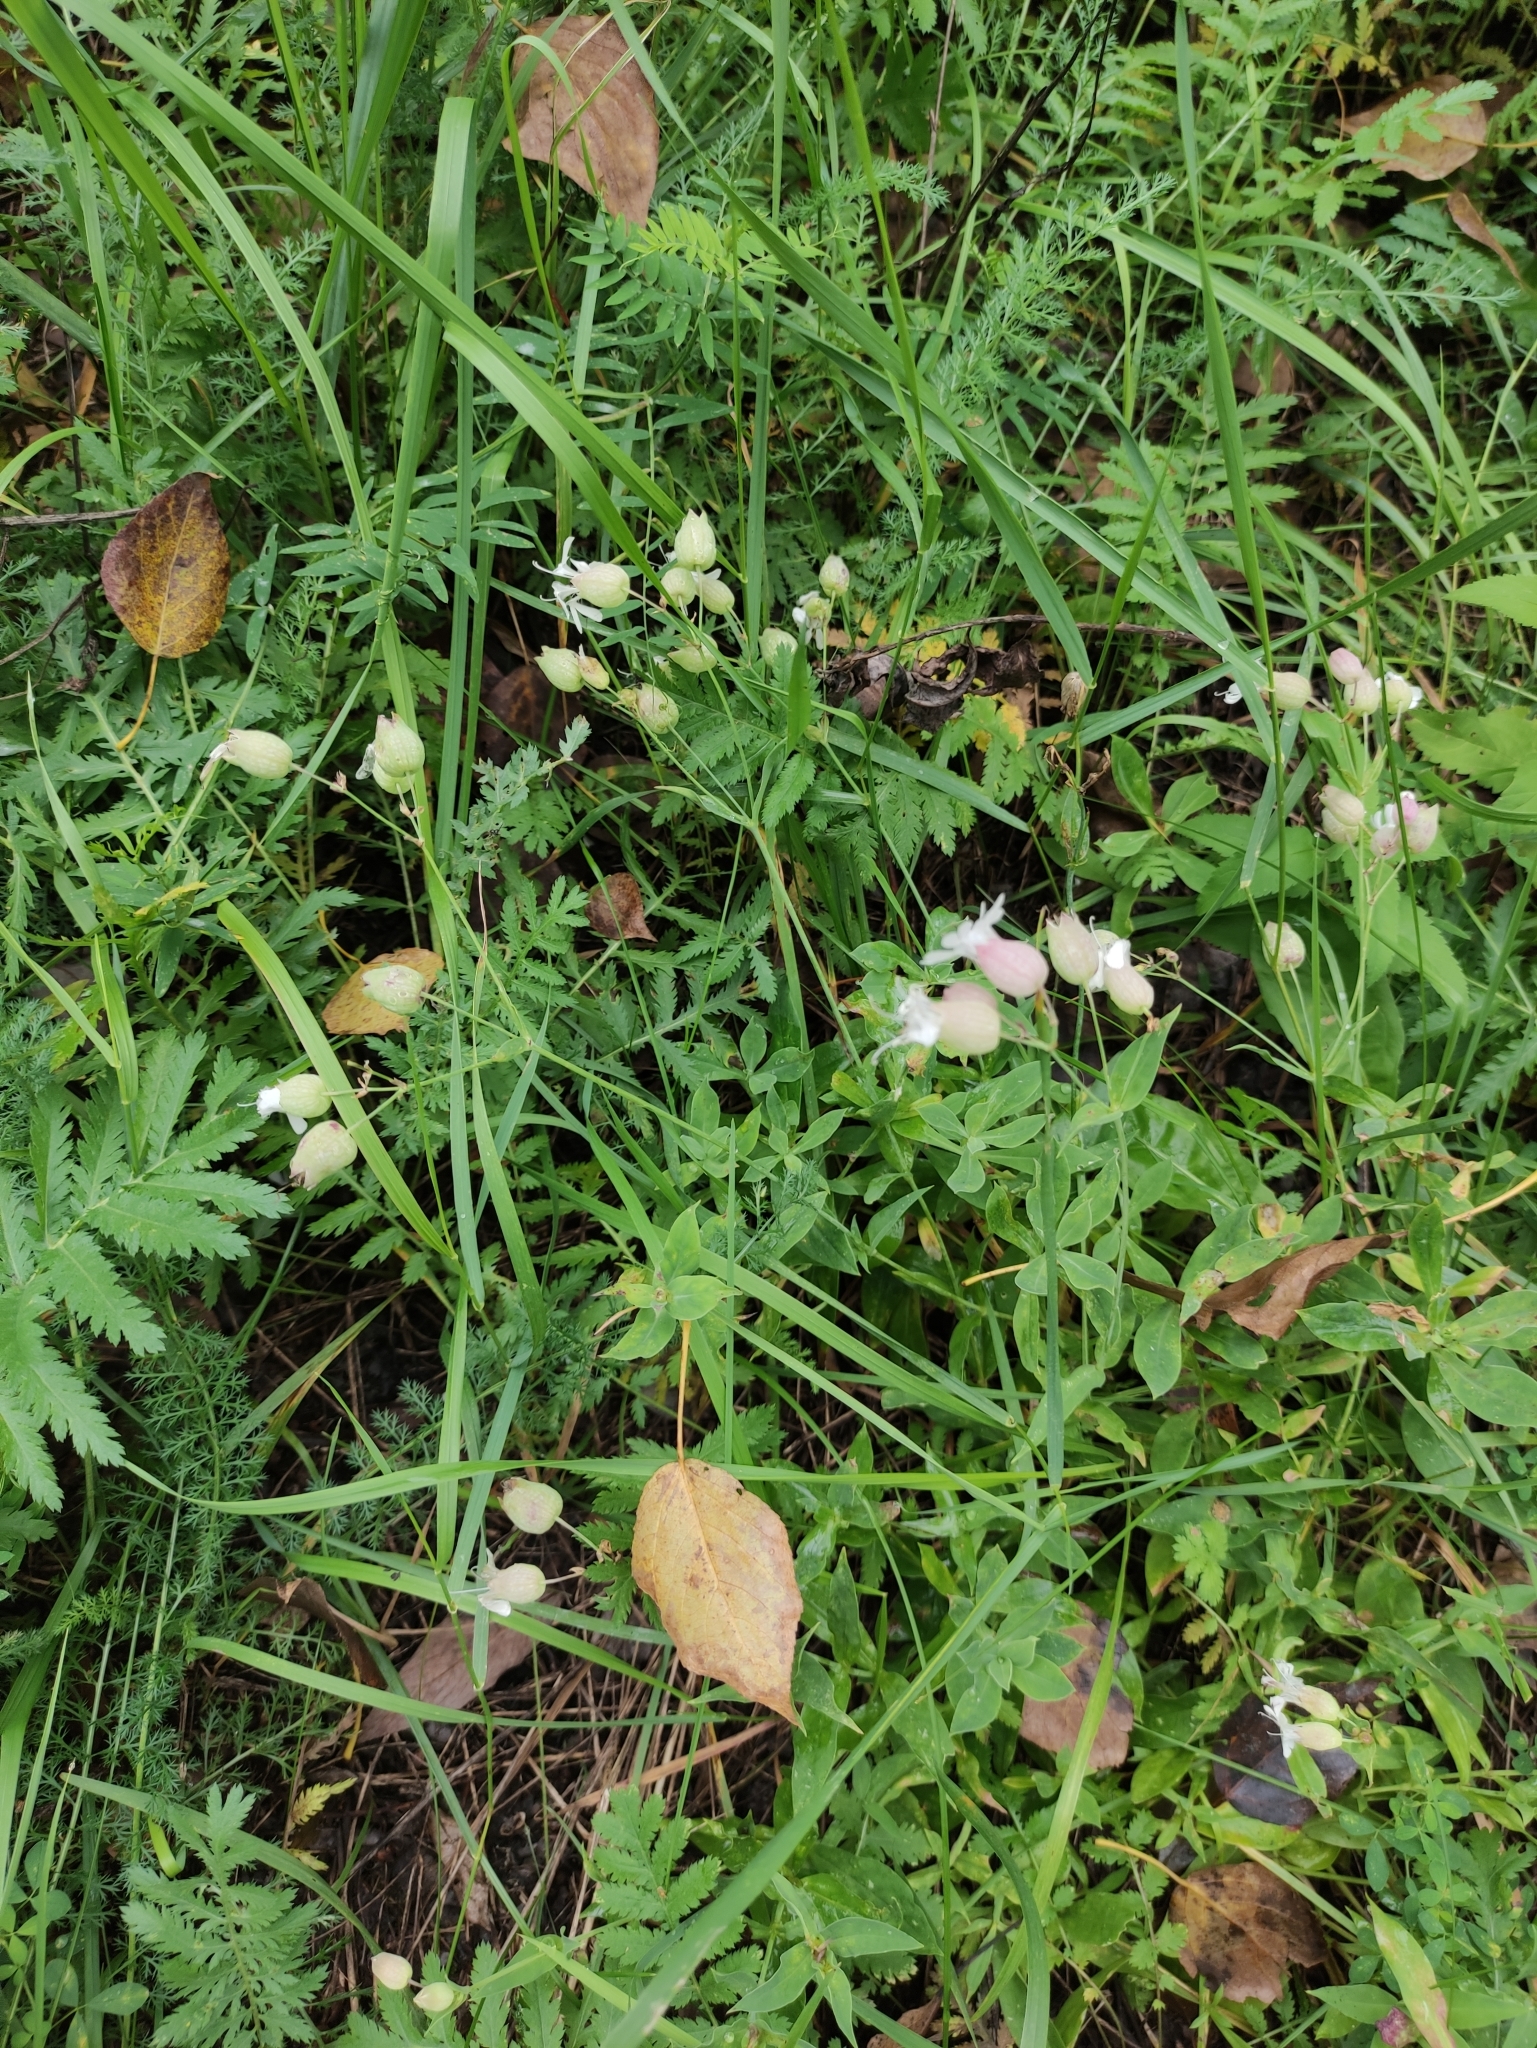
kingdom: Plantae
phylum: Tracheophyta
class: Magnoliopsida
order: Caryophyllales
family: Caryophyllaceae
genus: Silene
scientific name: Silene vulgaris
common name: Bladder campion
